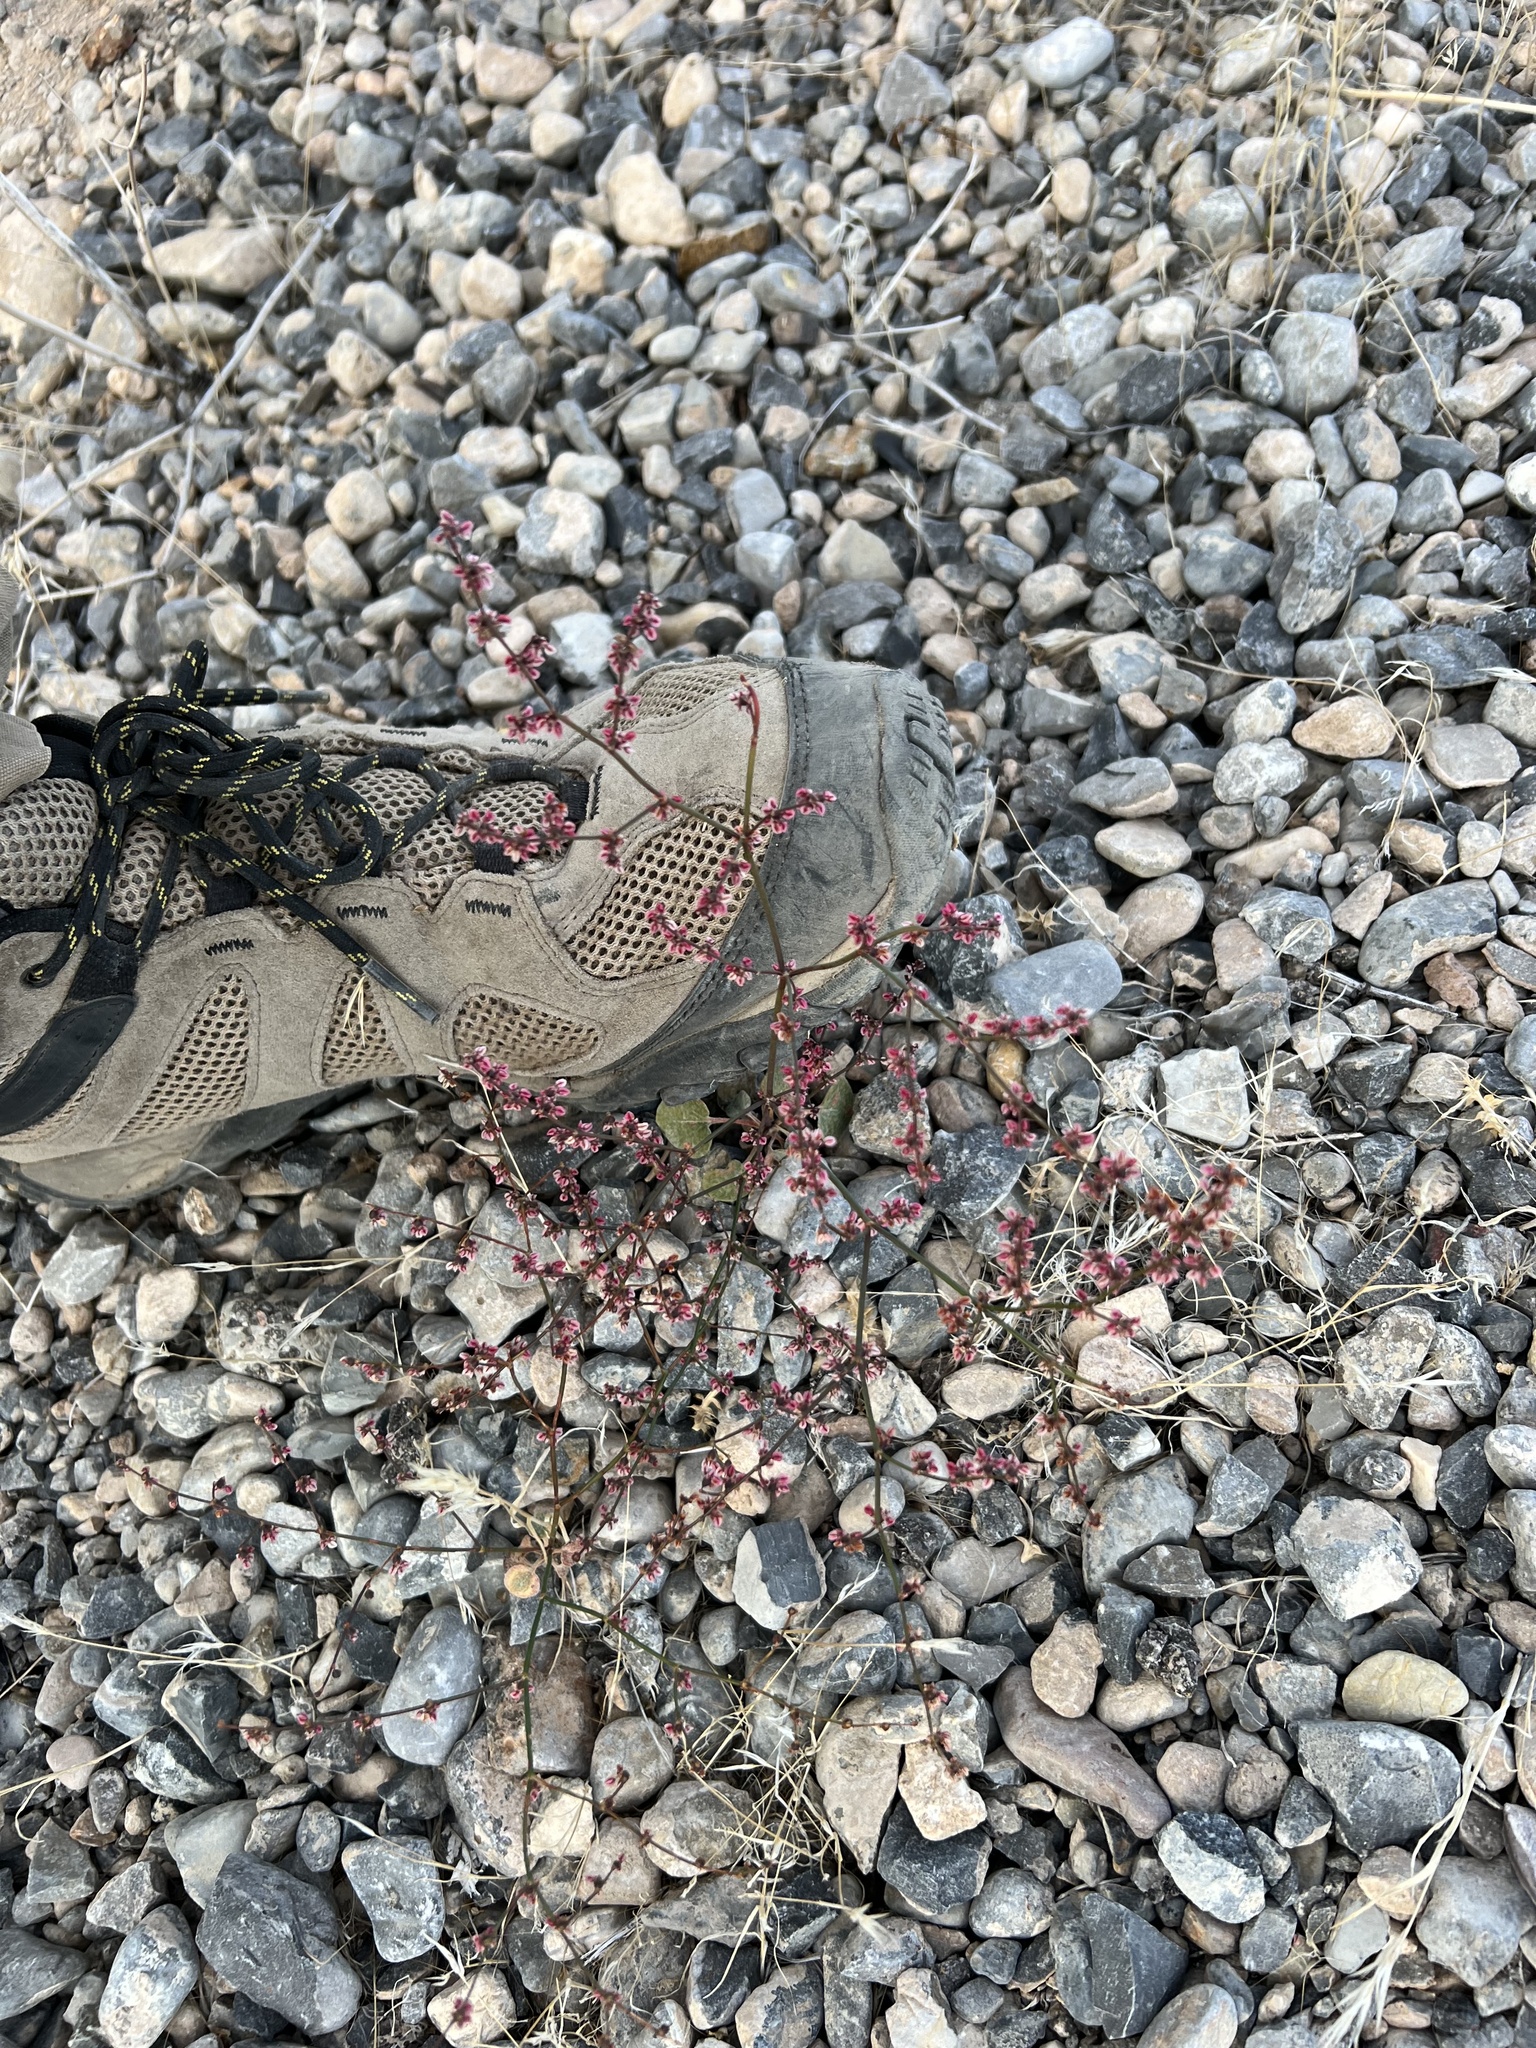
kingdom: Plantae
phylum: Tracheophyta
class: Magnoliopsida
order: Caryophyllales
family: Polygonaceae
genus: Eriogonum
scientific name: Eriogonum deflexum
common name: Skeleton-weed
